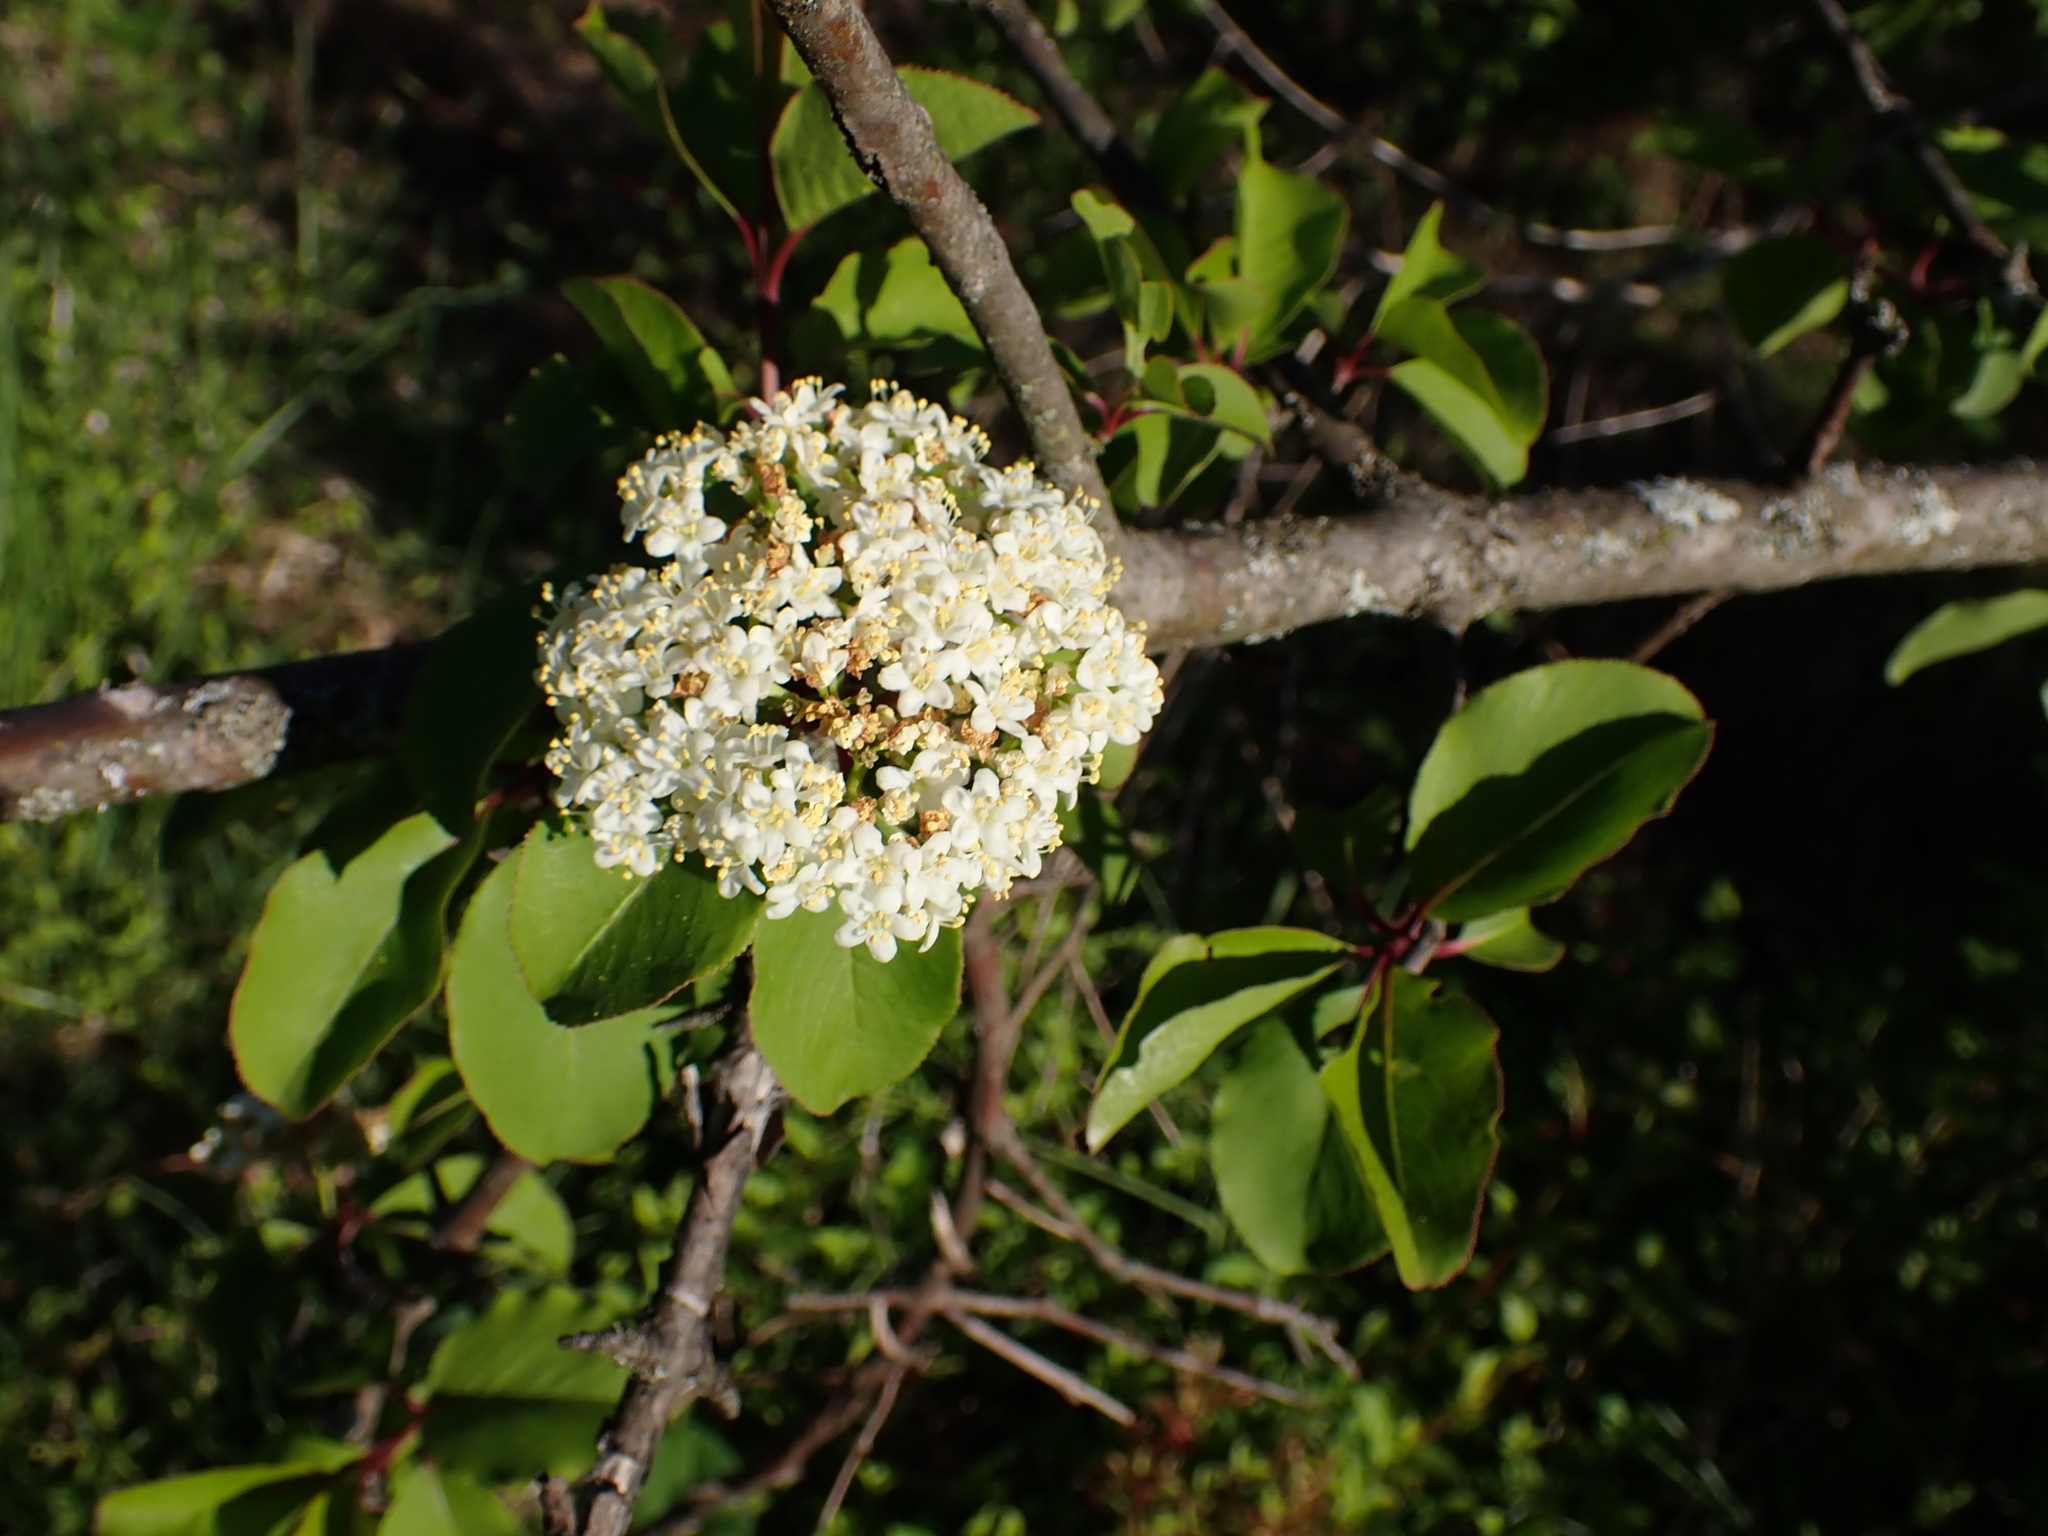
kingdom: Plantae
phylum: Tracheophyta
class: Magnoliopsida
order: Dipsacales
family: Viburnaceae
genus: Viburnum
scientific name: Viburnum prunifolium
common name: Black haw
